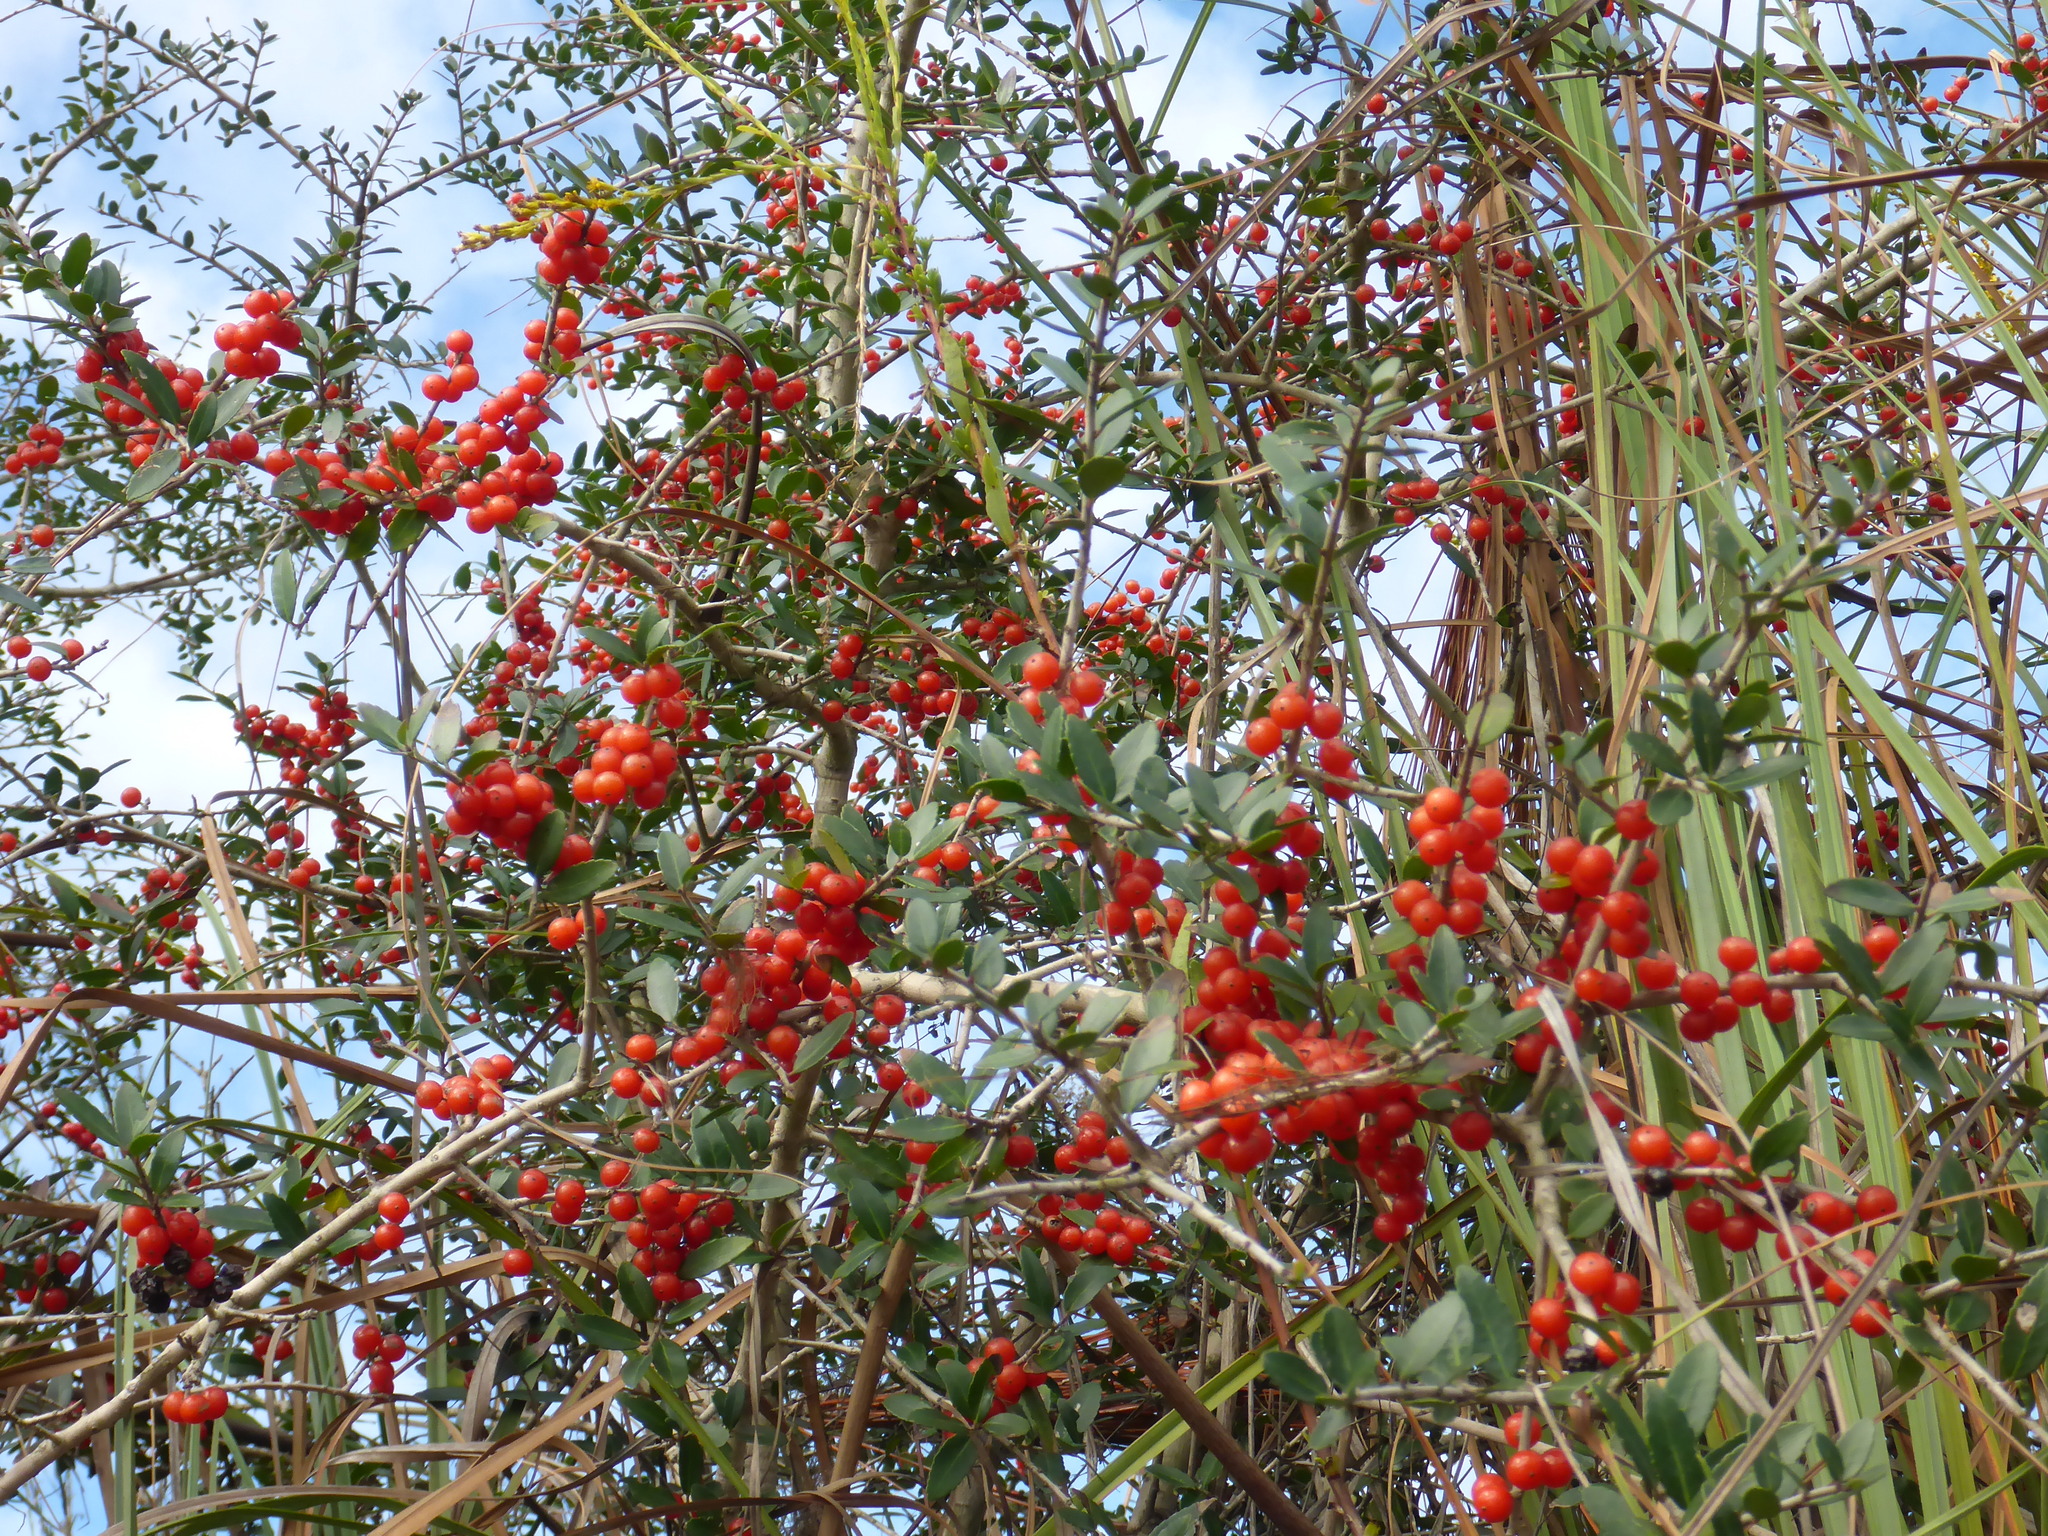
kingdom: Plantae
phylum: Tracheophyta
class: Magnoliopsida
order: Aquifoliales
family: Aquifoliaceae
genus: Ilex
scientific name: Ilex vomitoria
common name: Yaupon holly
